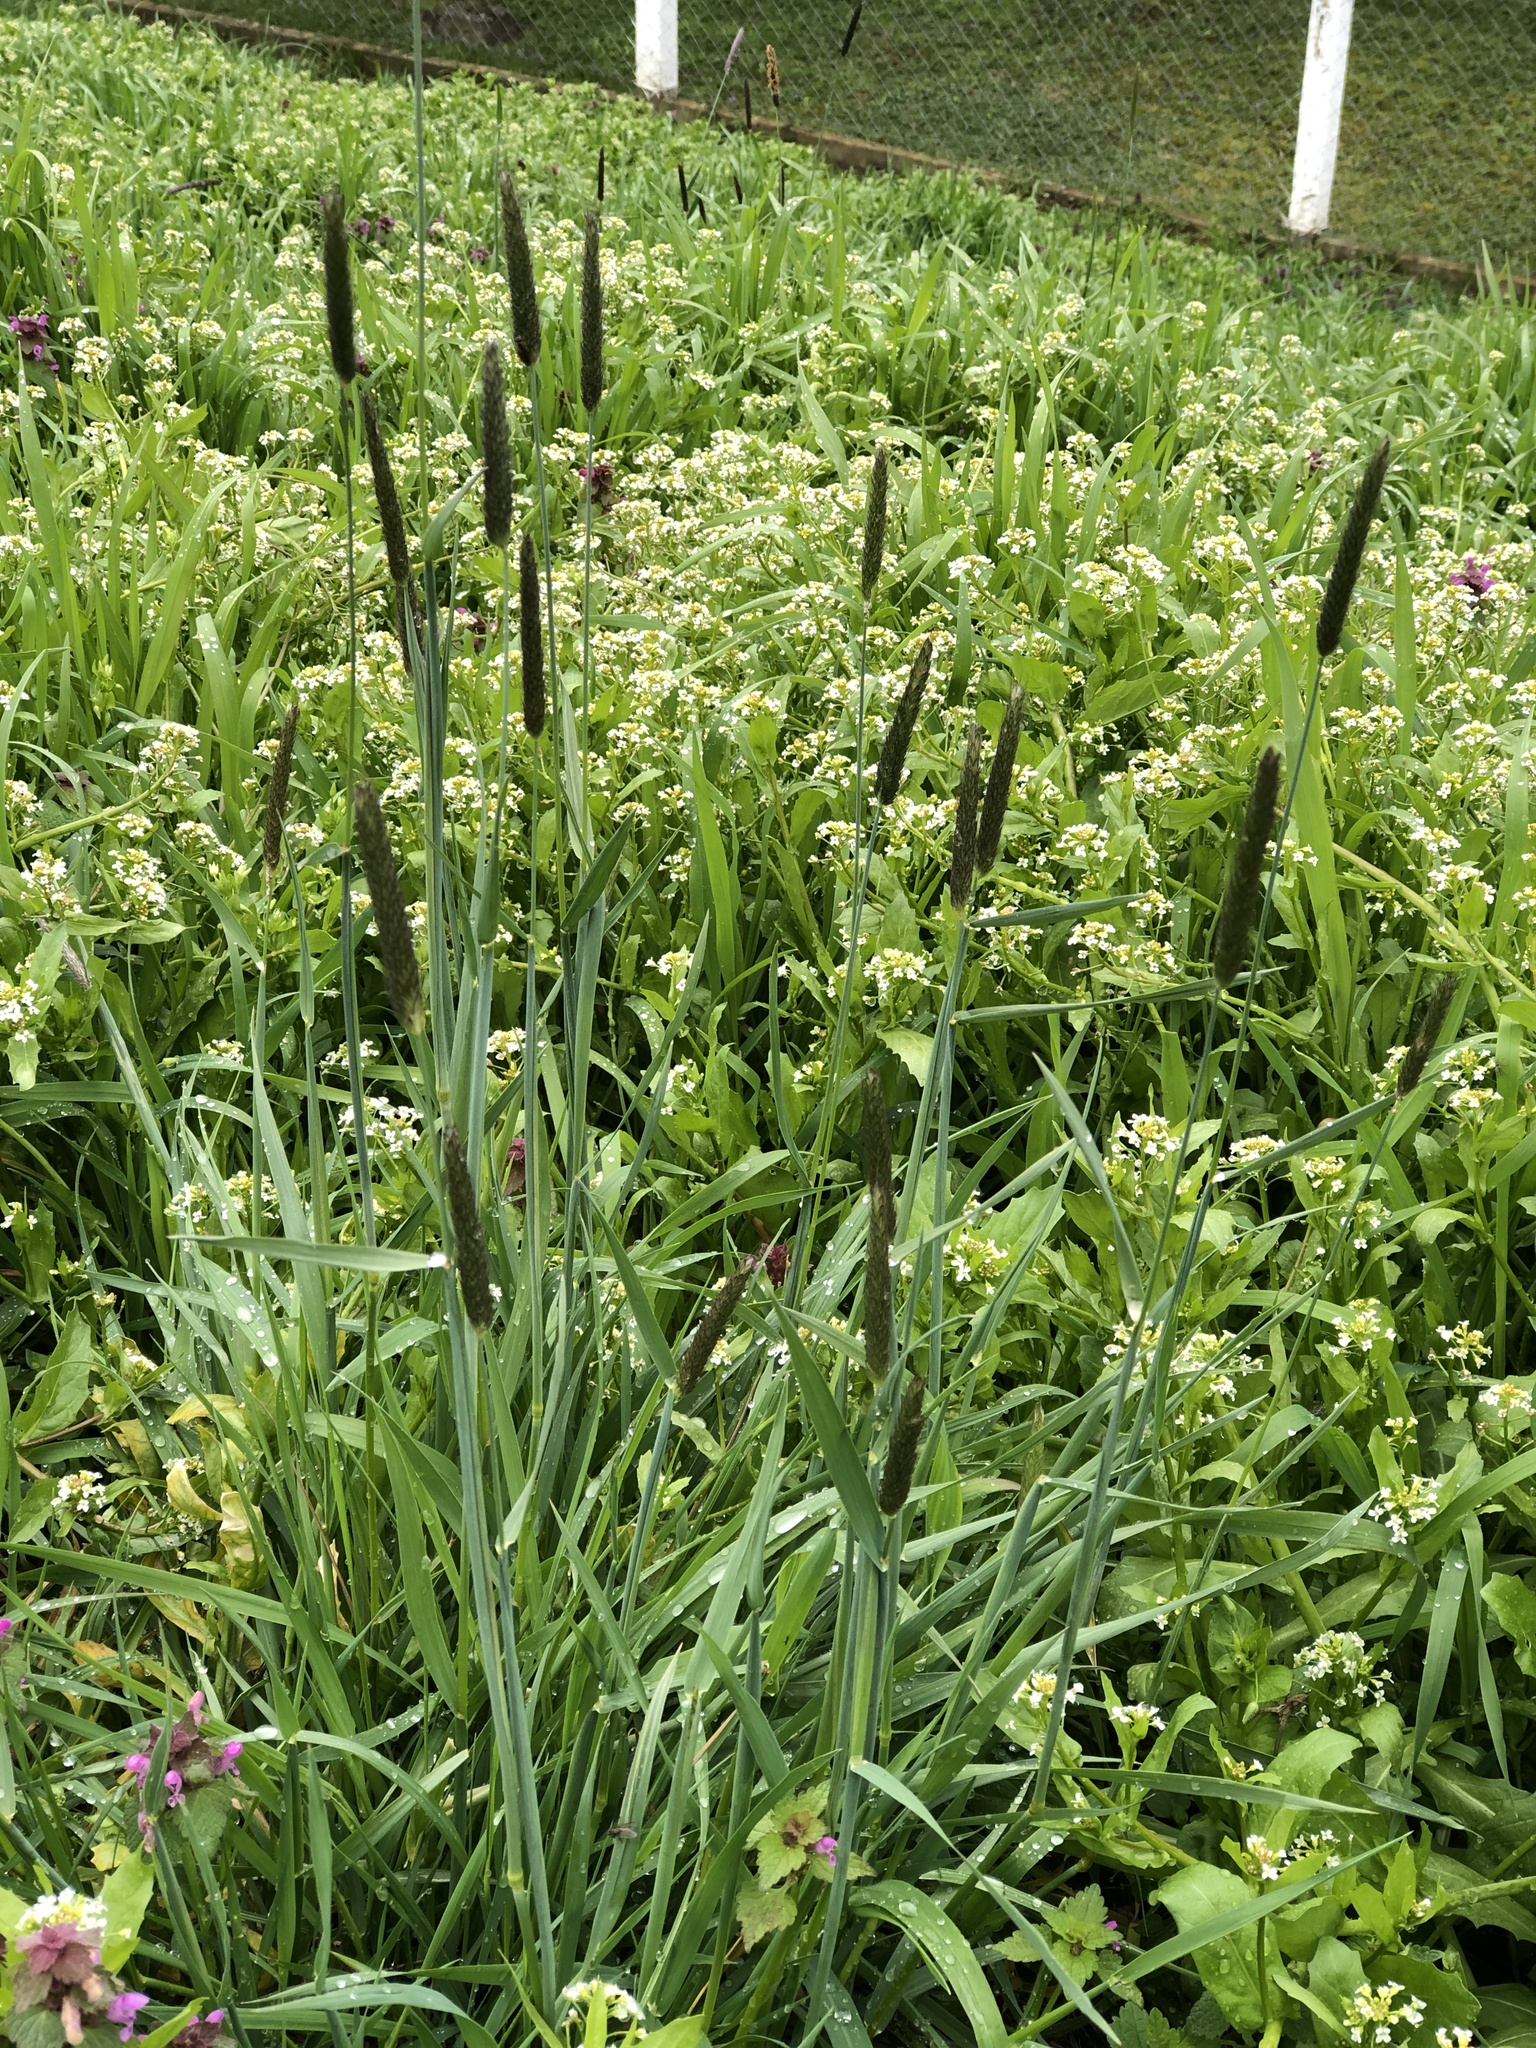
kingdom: Plantae
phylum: Tracheophyta
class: Liliopsida
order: Poales
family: Poaceae
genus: Alopecurus
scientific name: Alopecurus pratensis
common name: Meadow foxtail
